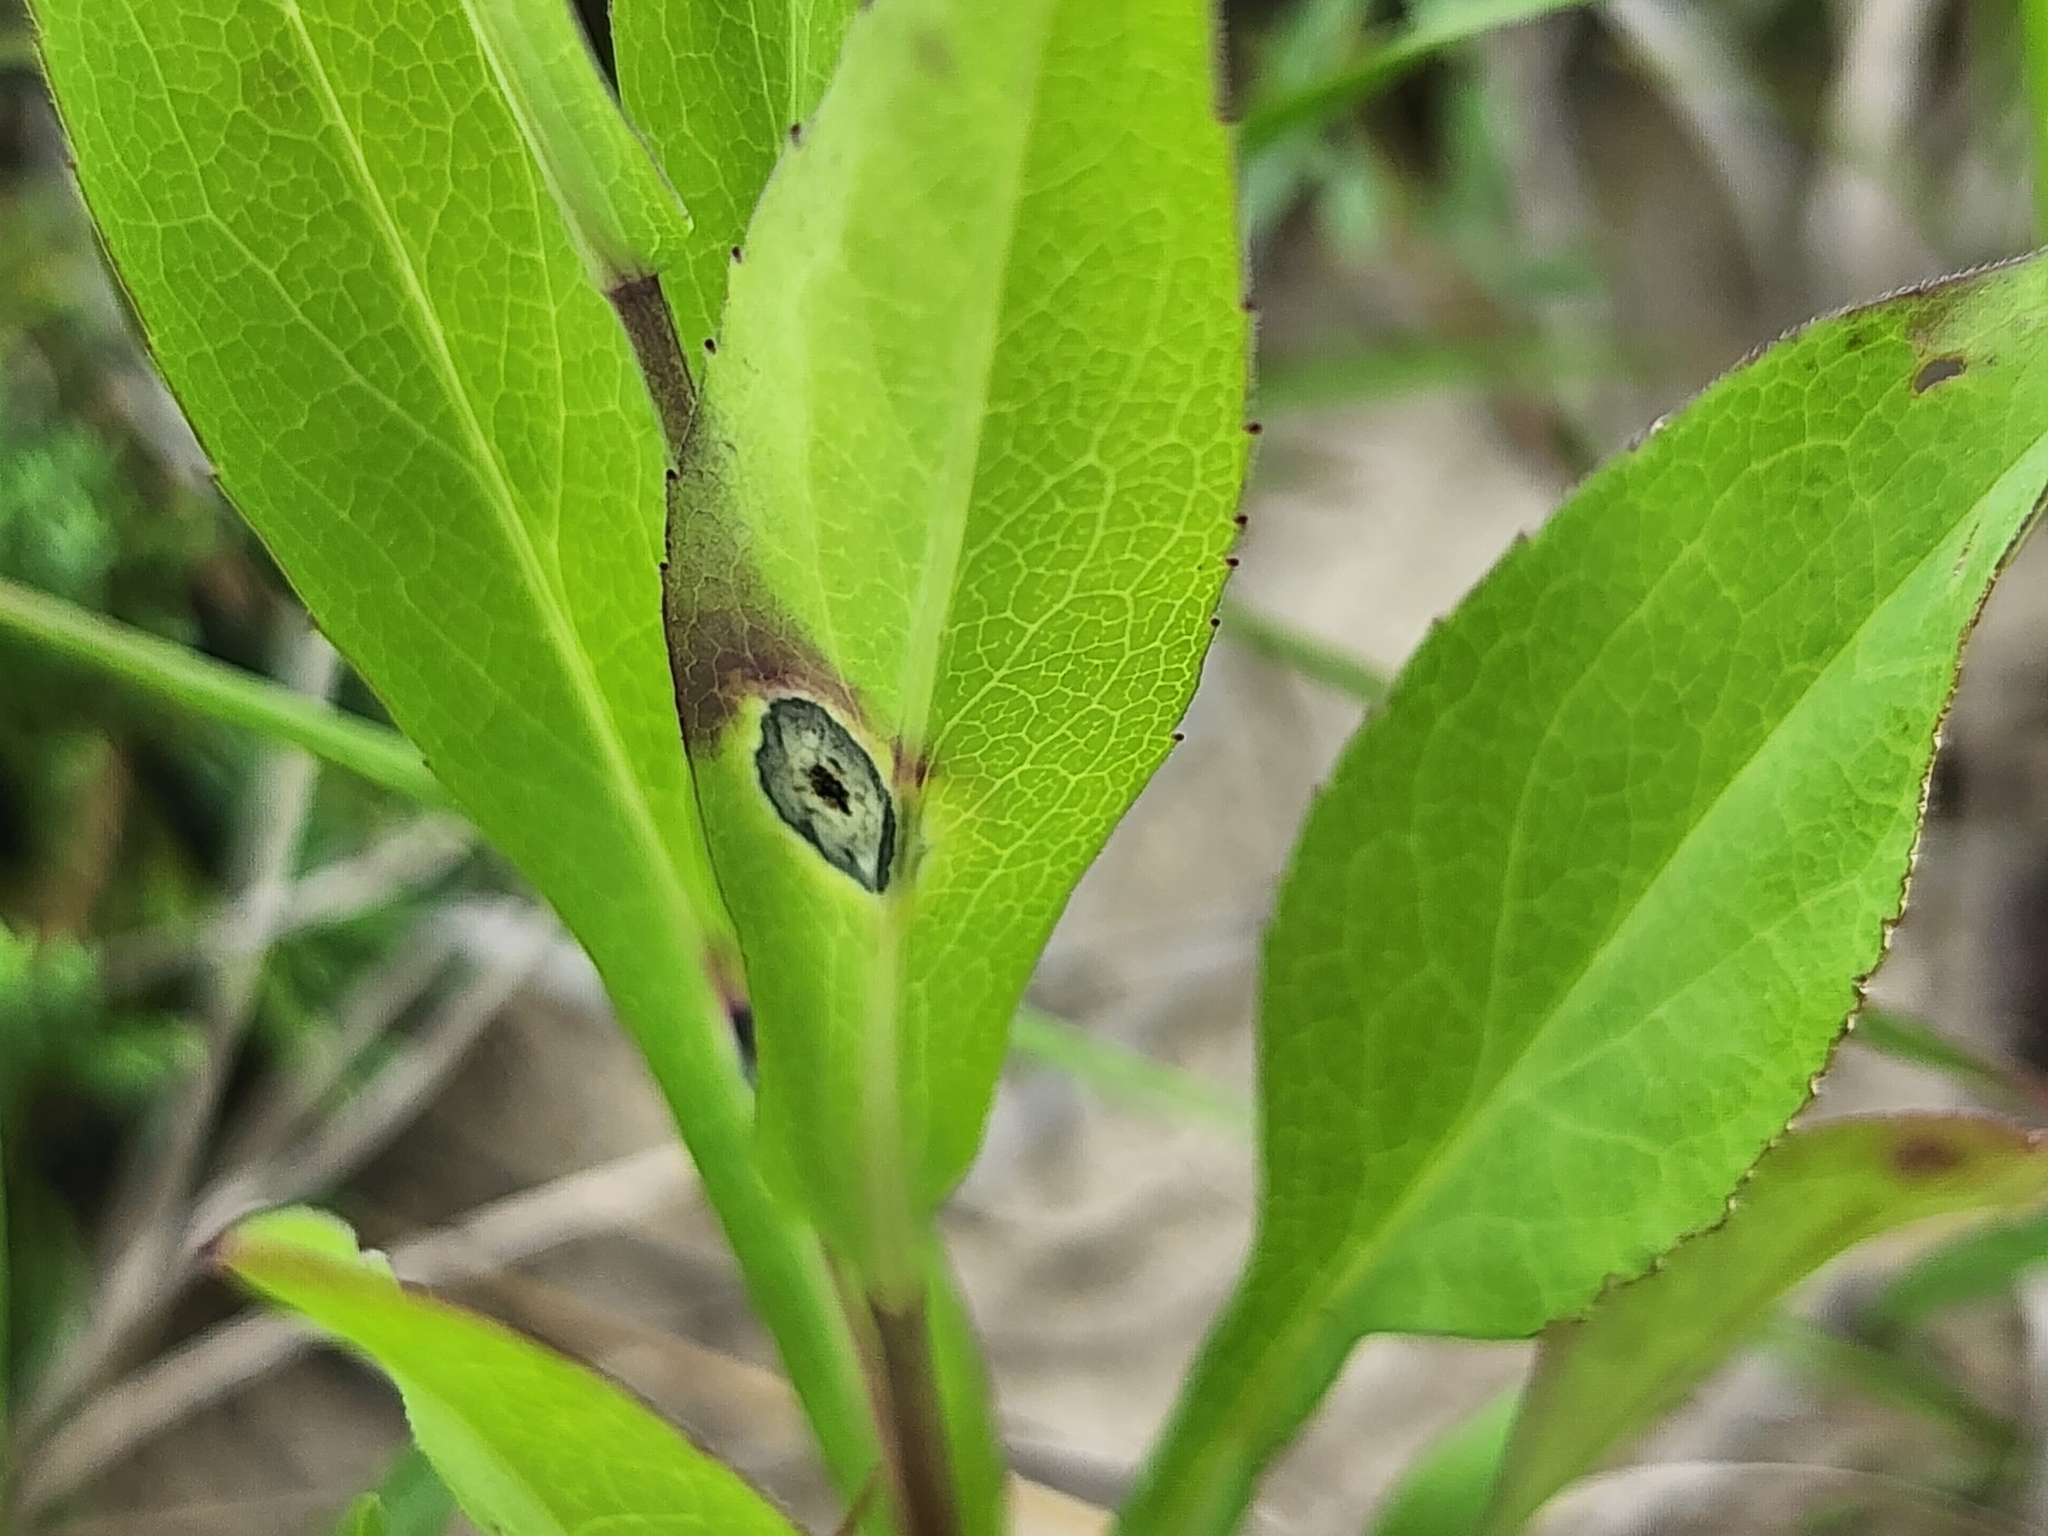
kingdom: Animalia
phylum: Arthropoda
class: Insecta
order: Diptera
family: Cecidomyiidae
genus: Asteromyia
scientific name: Asteromyia carbonifera
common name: Carbonifera goldenrod gall midge
